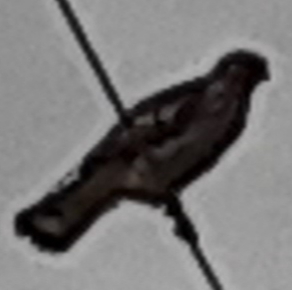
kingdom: Animalia
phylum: Chordata
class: Aves
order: Accipitriformes
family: Accipitridae
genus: Buteo
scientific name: Buteo jamaicensis
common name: Red-tailed hawk
